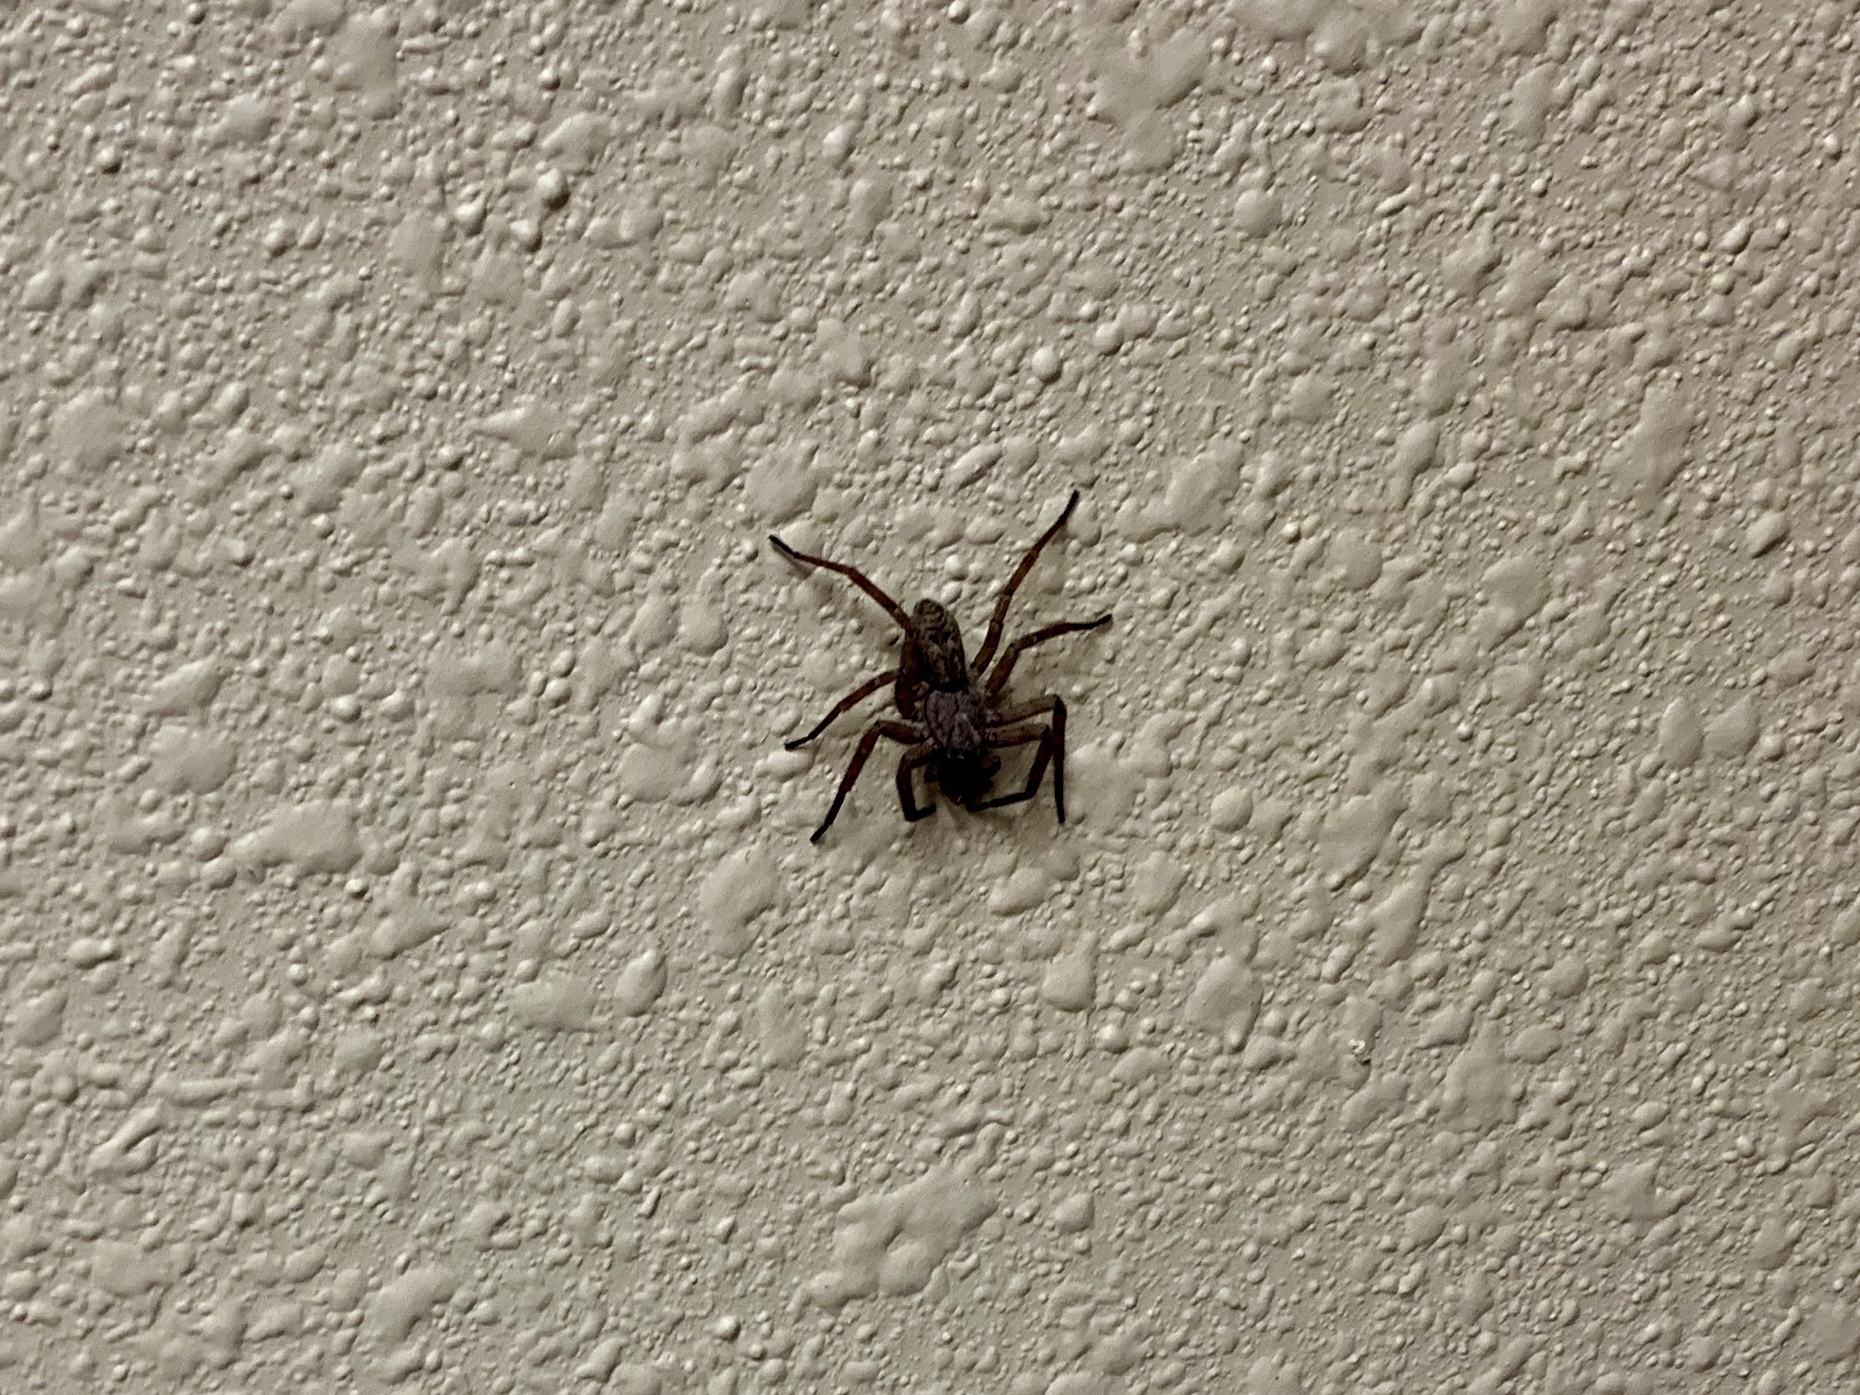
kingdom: Animalia
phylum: Arthropoda
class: Arachnida
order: Araneae
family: Zoropsidae
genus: Lauricius
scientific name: Lauricius hooki
